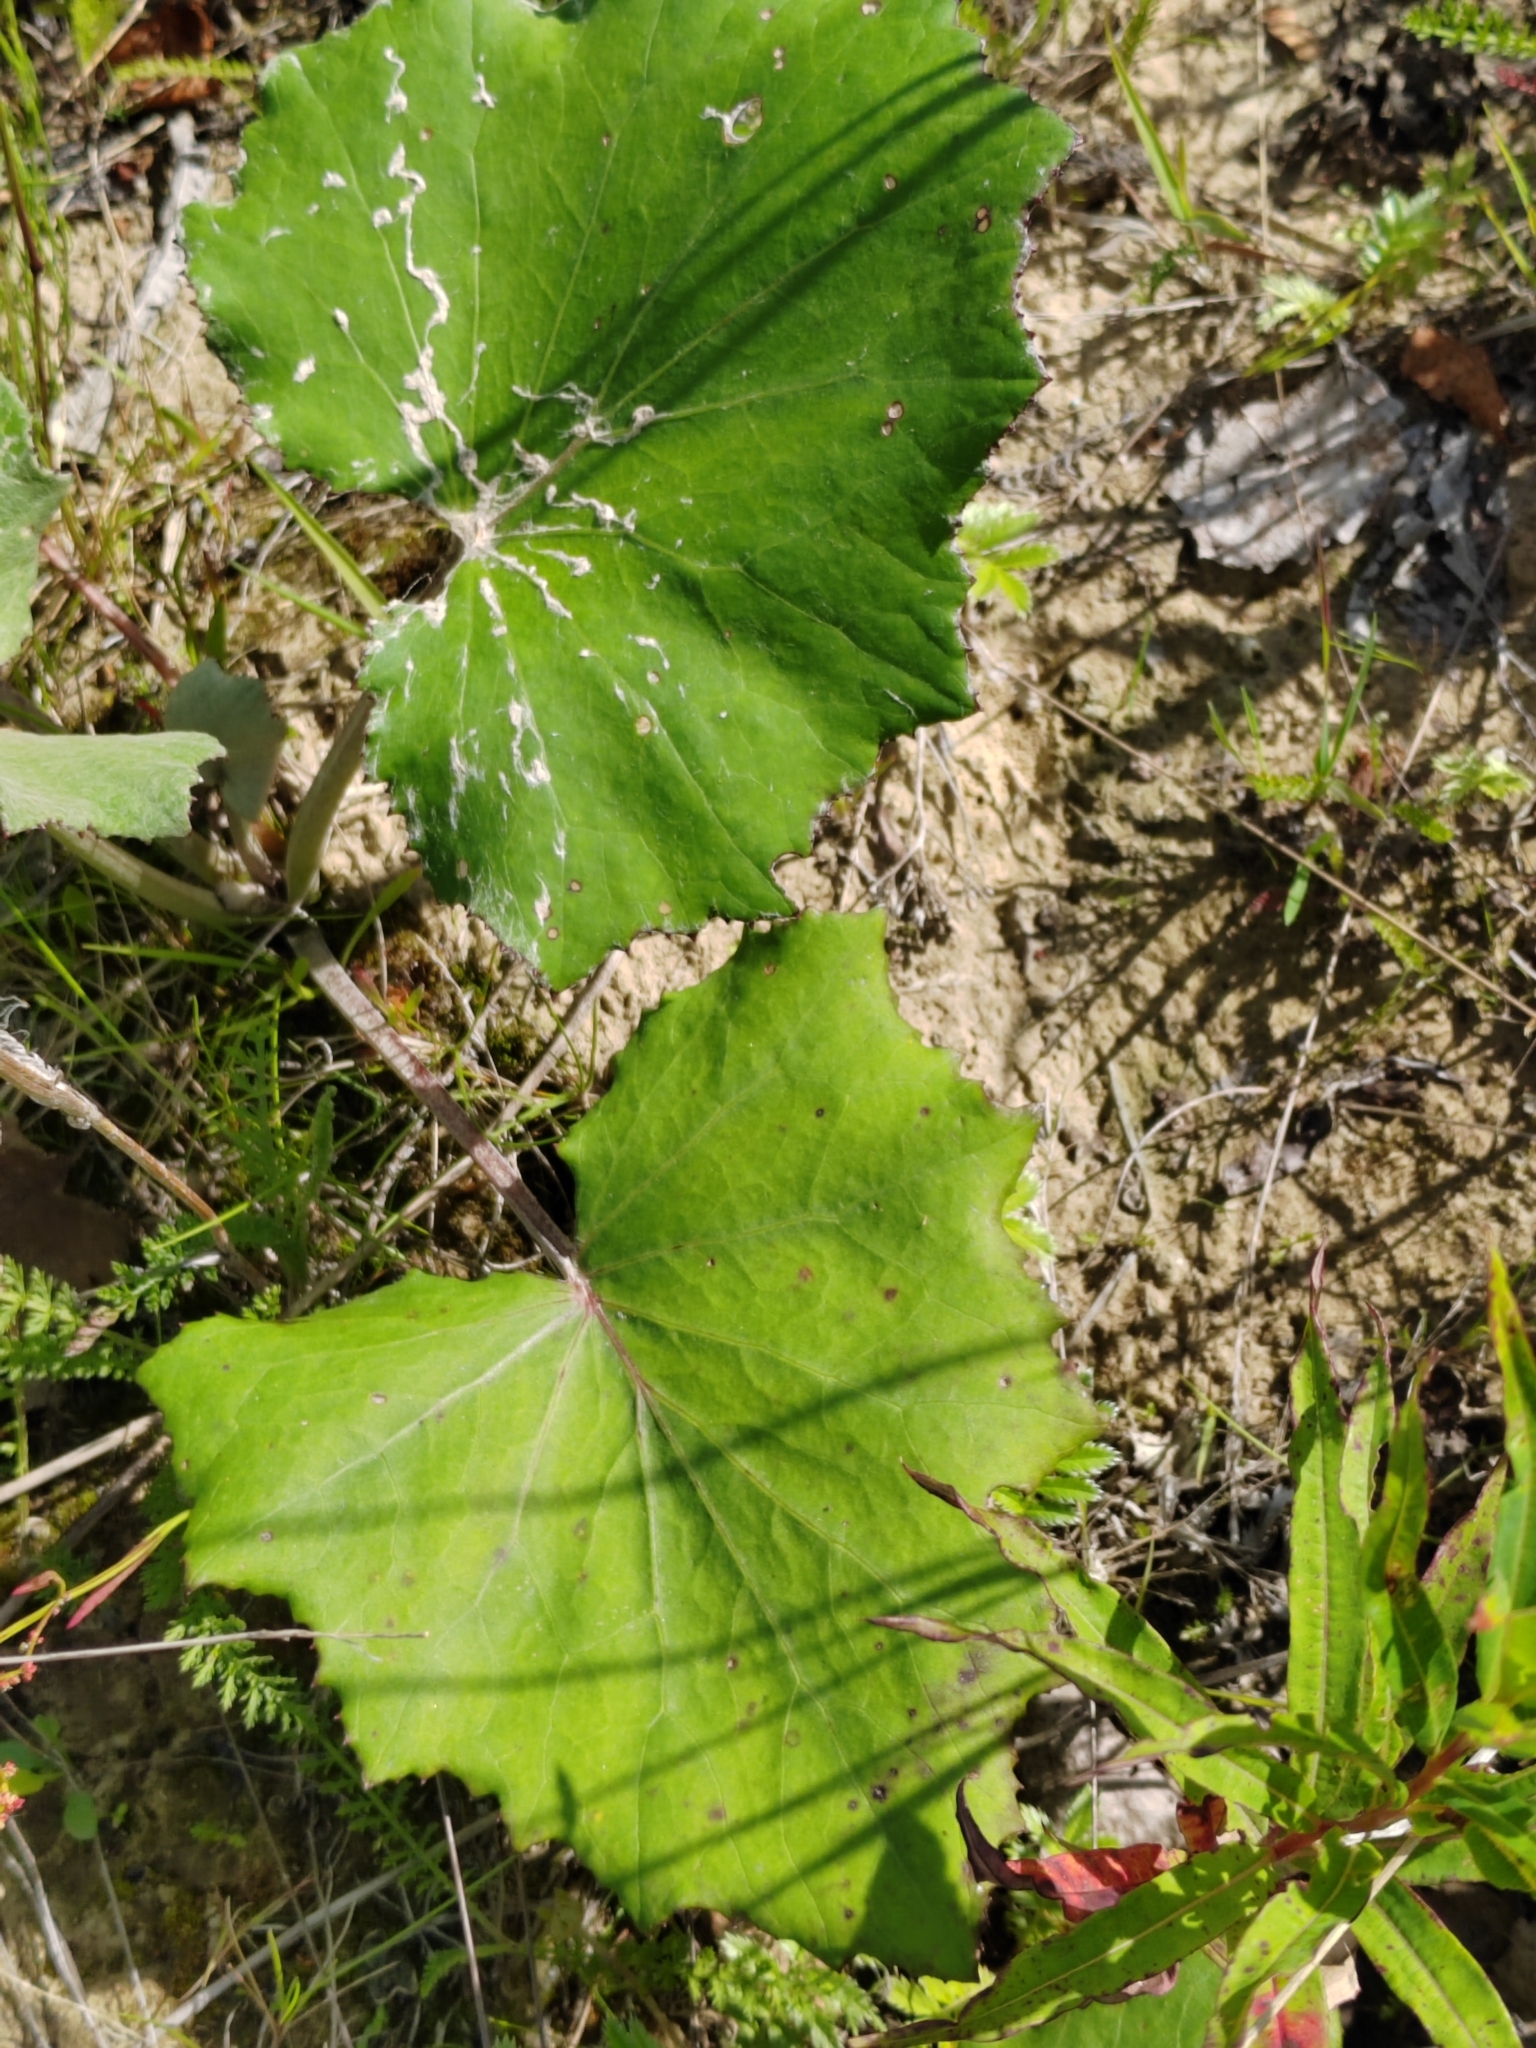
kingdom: Plantae
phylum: Tracheophyta
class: Magnoliopsida
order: Asterales
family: Asteraceae
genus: Tussilago
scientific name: Tussilago farfara
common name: Coltsfoot
